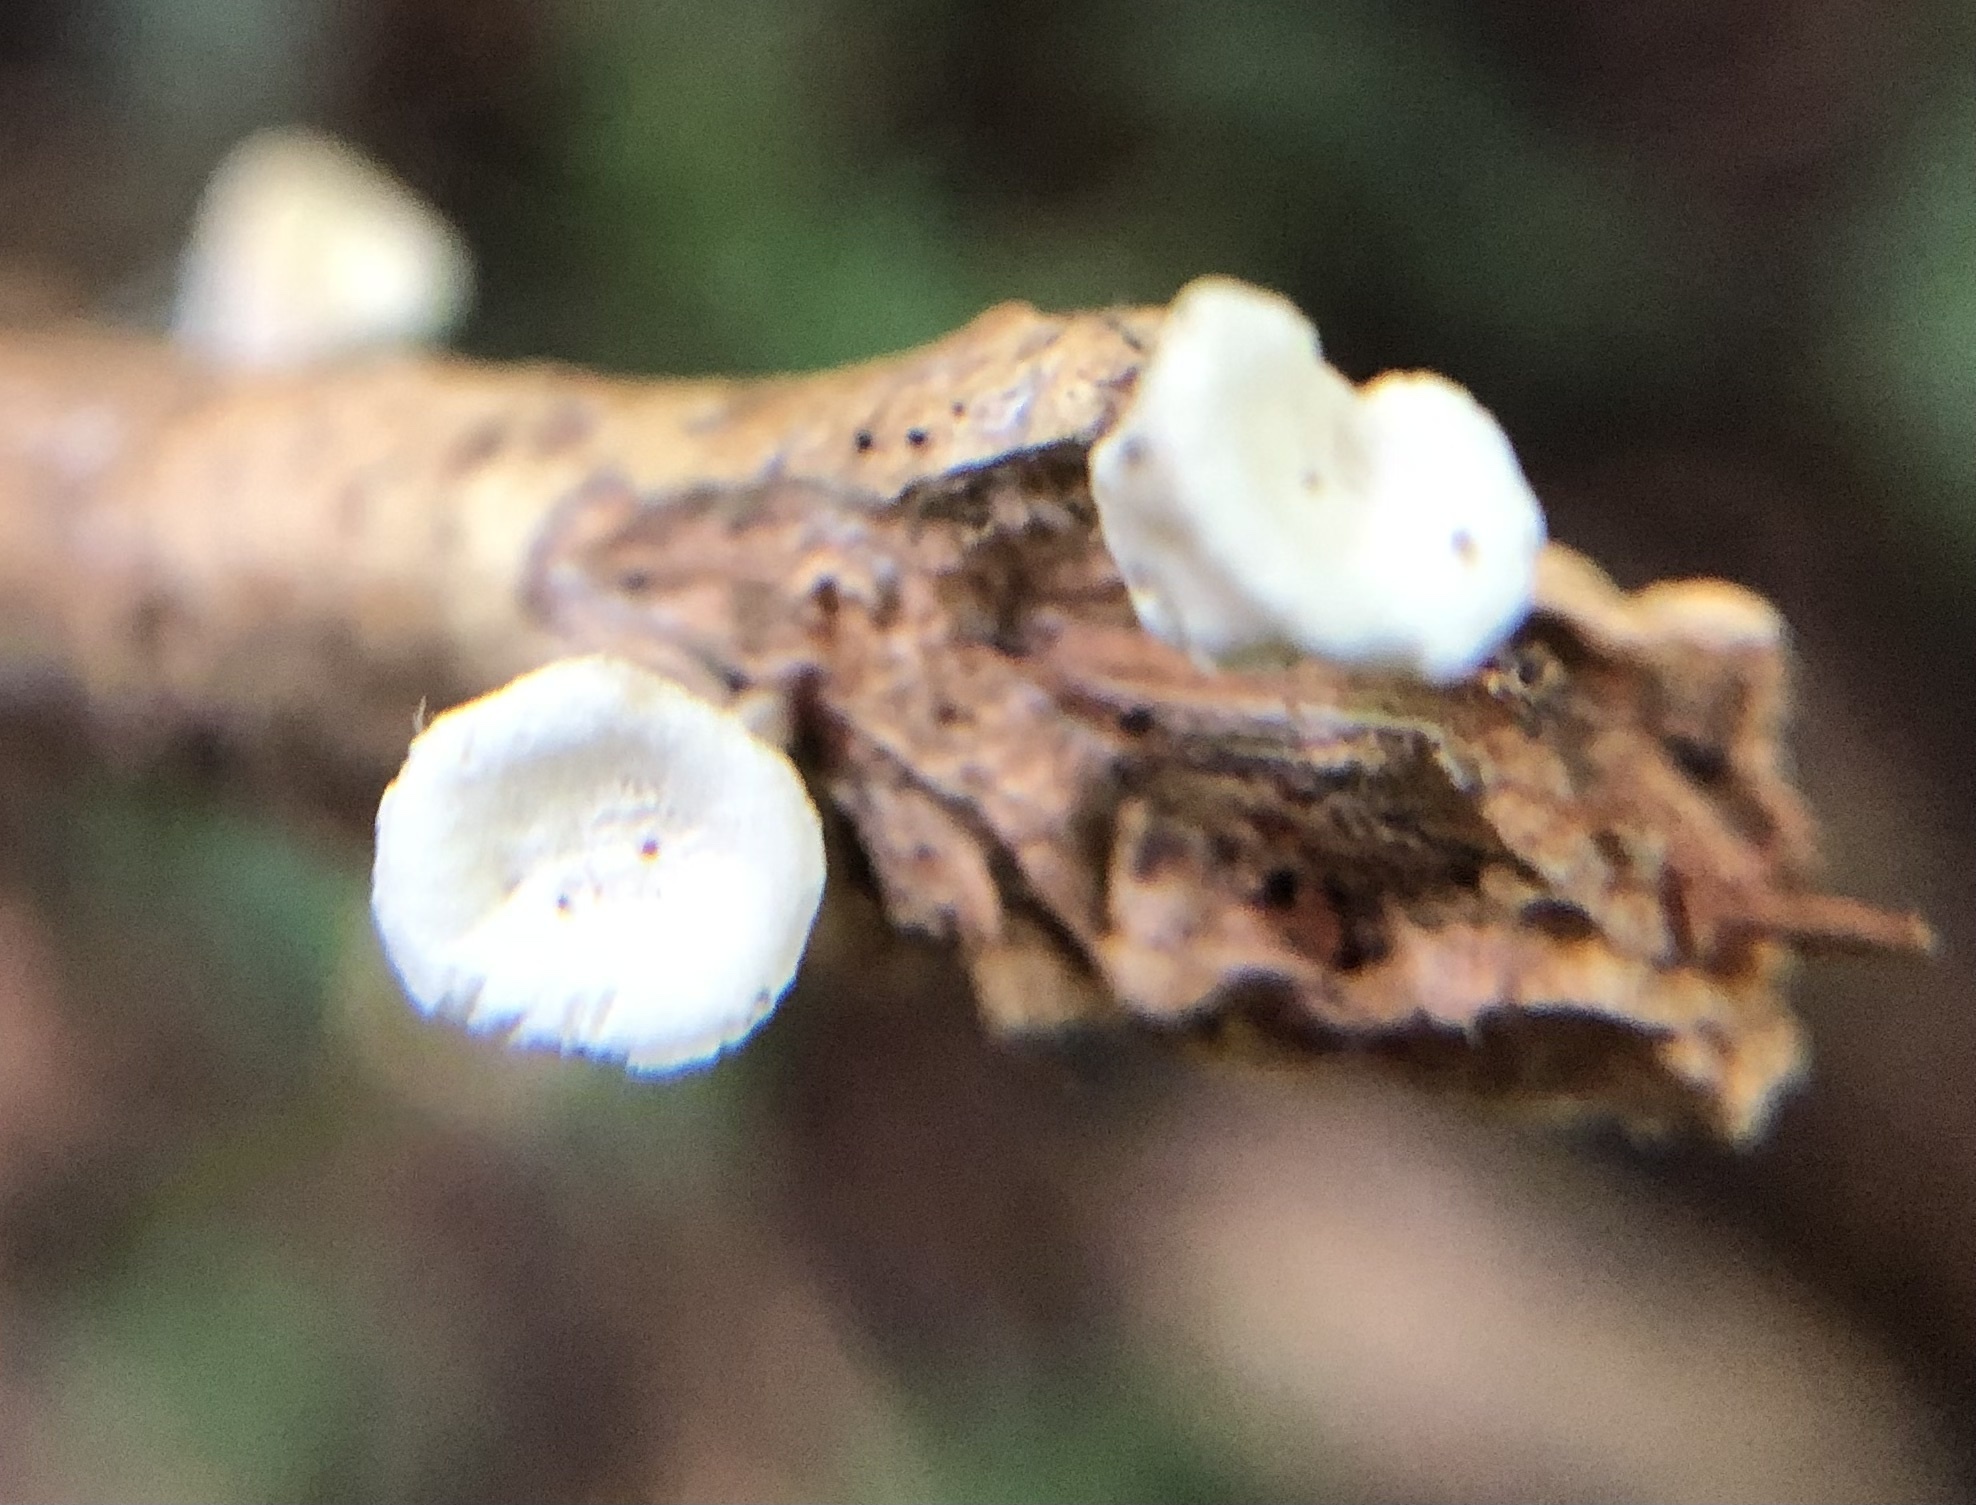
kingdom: Fungi
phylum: Basidiomycota
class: Agaricomycetes
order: Agaricales
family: Omphalotaceae
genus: Gymnopus
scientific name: Gymnopus montagnei
